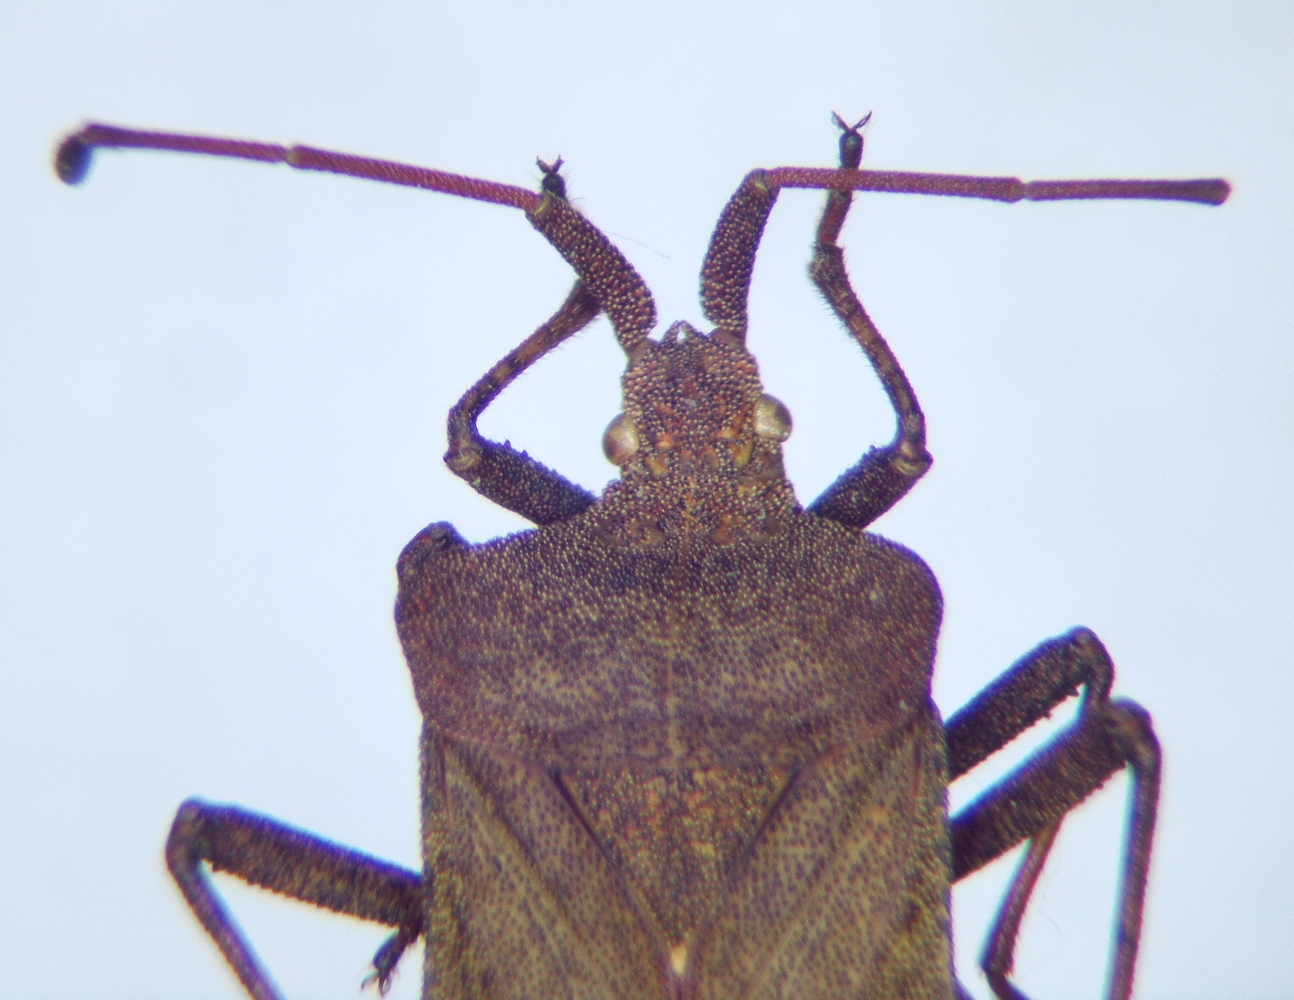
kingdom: Animalia
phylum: Arthropoda
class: Insecta
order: Hemiptera
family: Coreidae
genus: Coreus
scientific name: Coreus marginatus
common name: Dock bug
